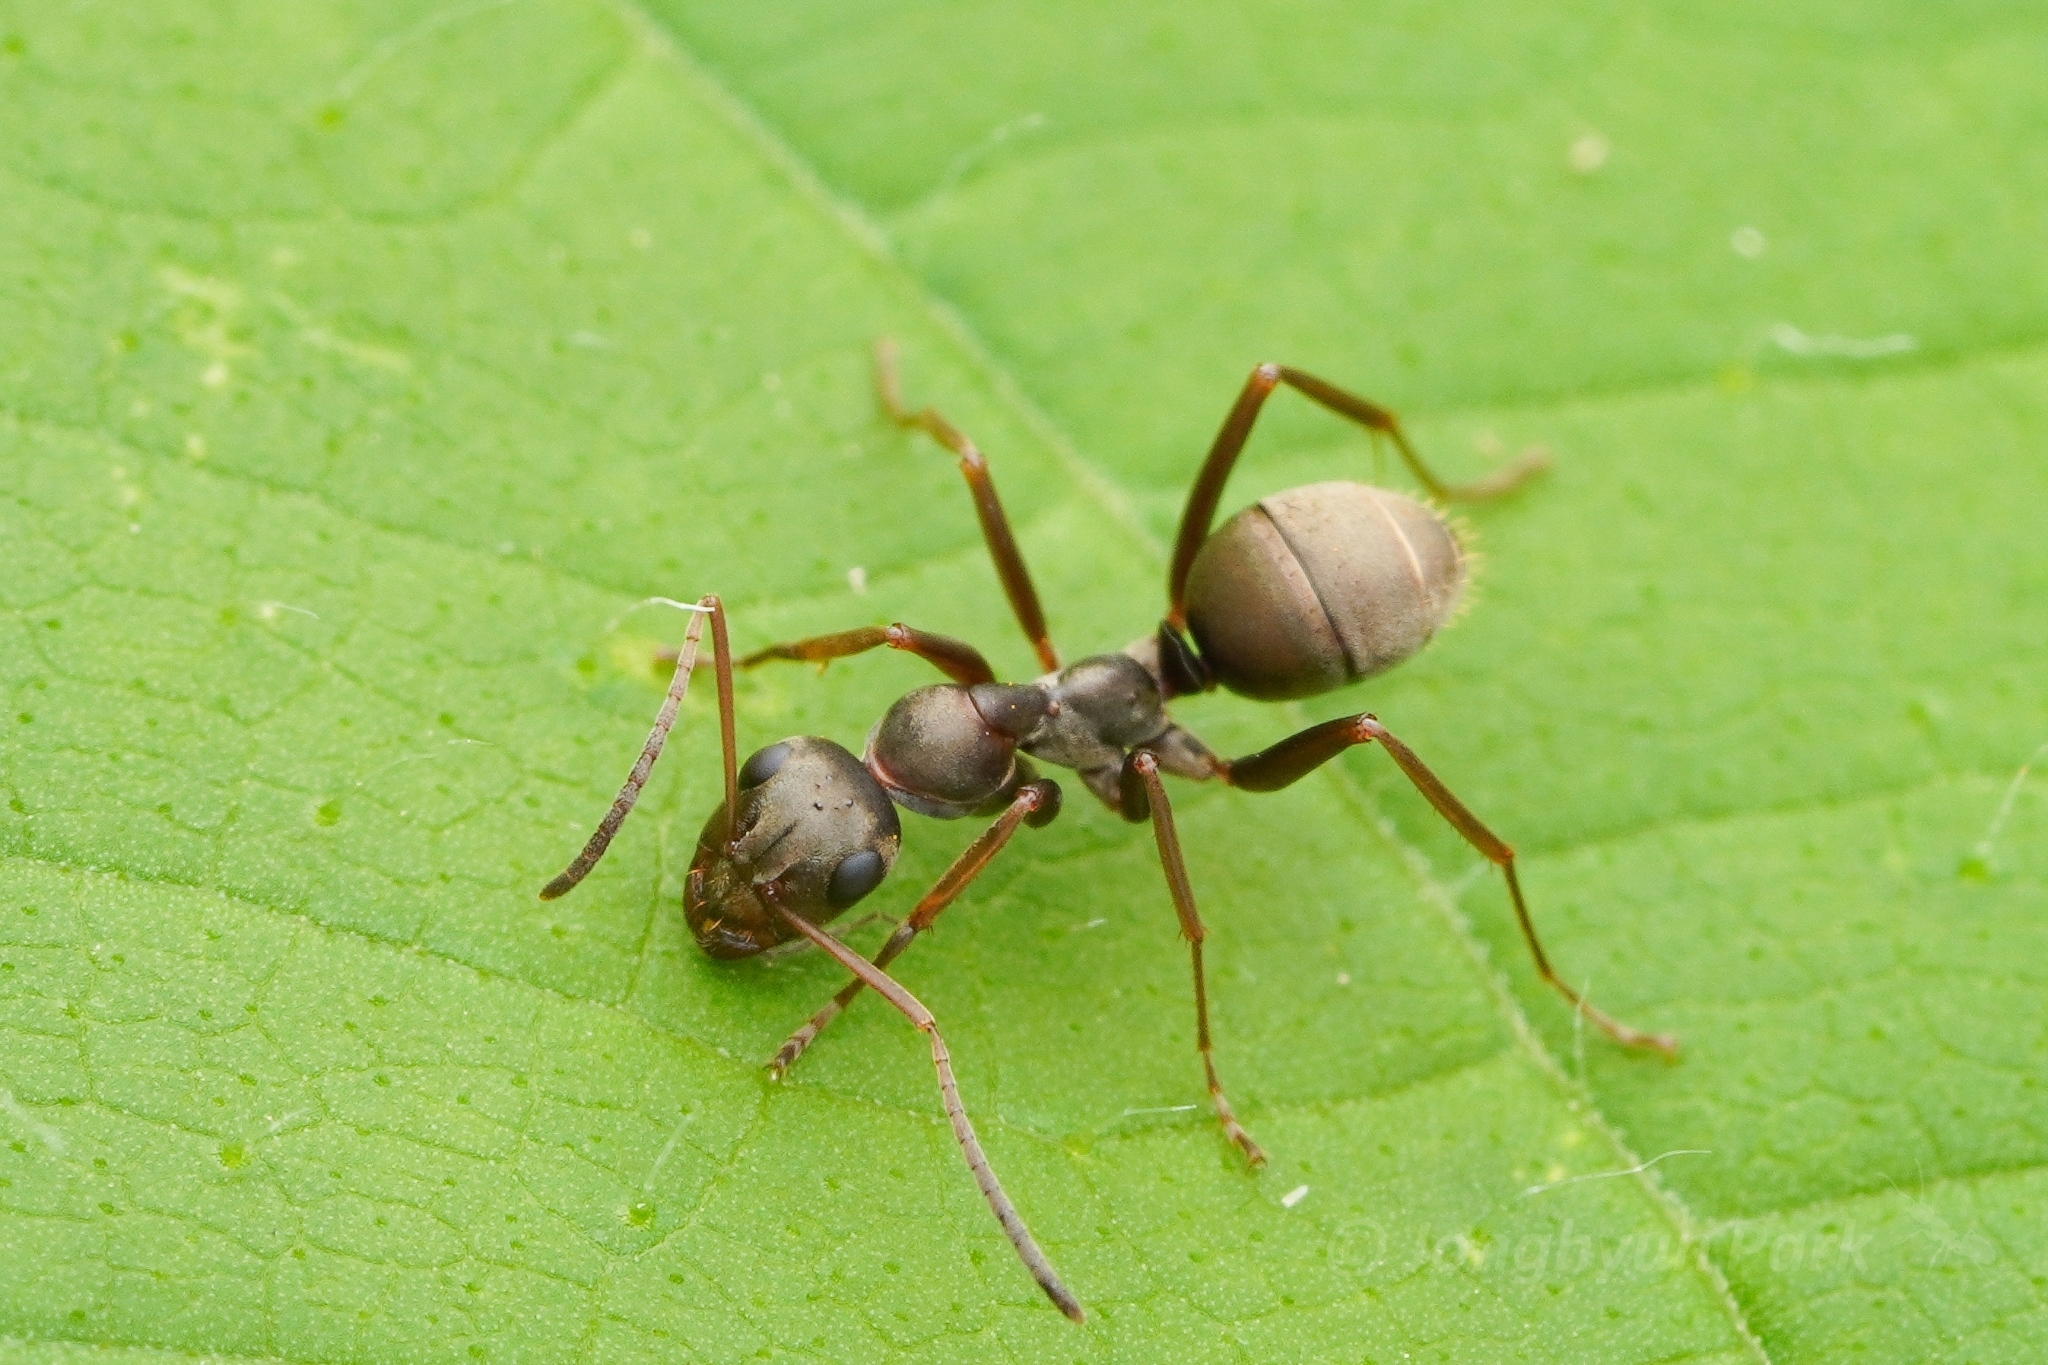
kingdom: Animalia
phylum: Arthropoda
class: Insecta
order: Hymenoptera
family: Formicidae
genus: Formica
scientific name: Formica japonica
